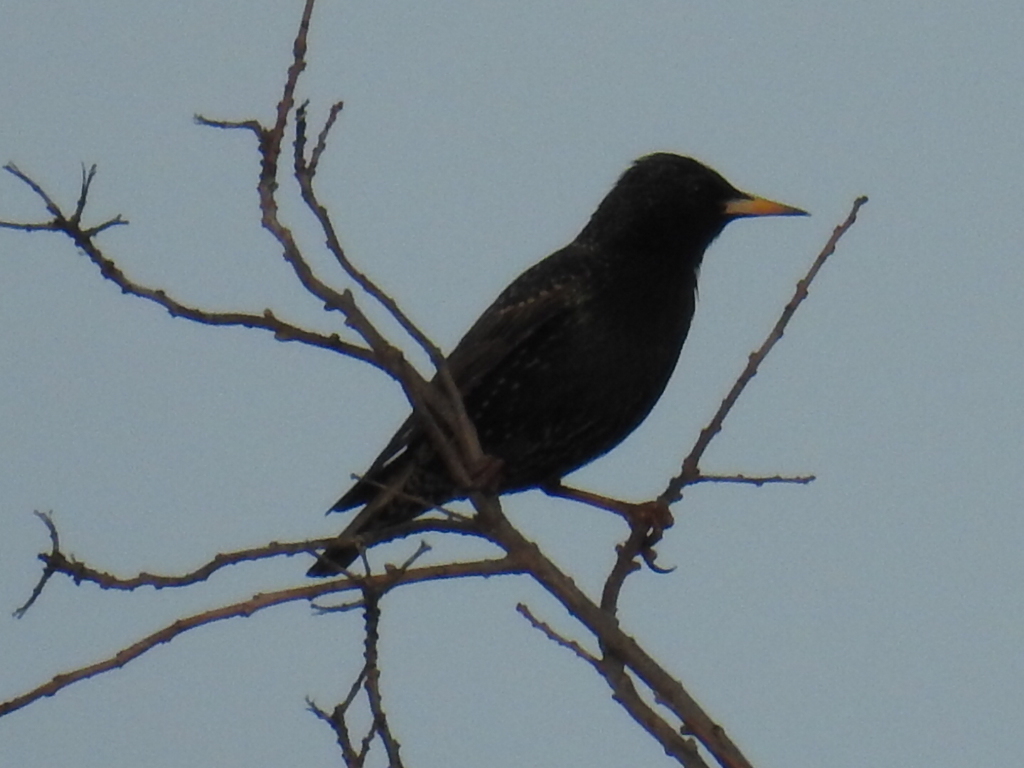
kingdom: Animalia
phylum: Chordata
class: Aves
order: Passeriformes
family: Sturnidae
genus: Sturnus
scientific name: Sturnus vulgaris
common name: Common starling
